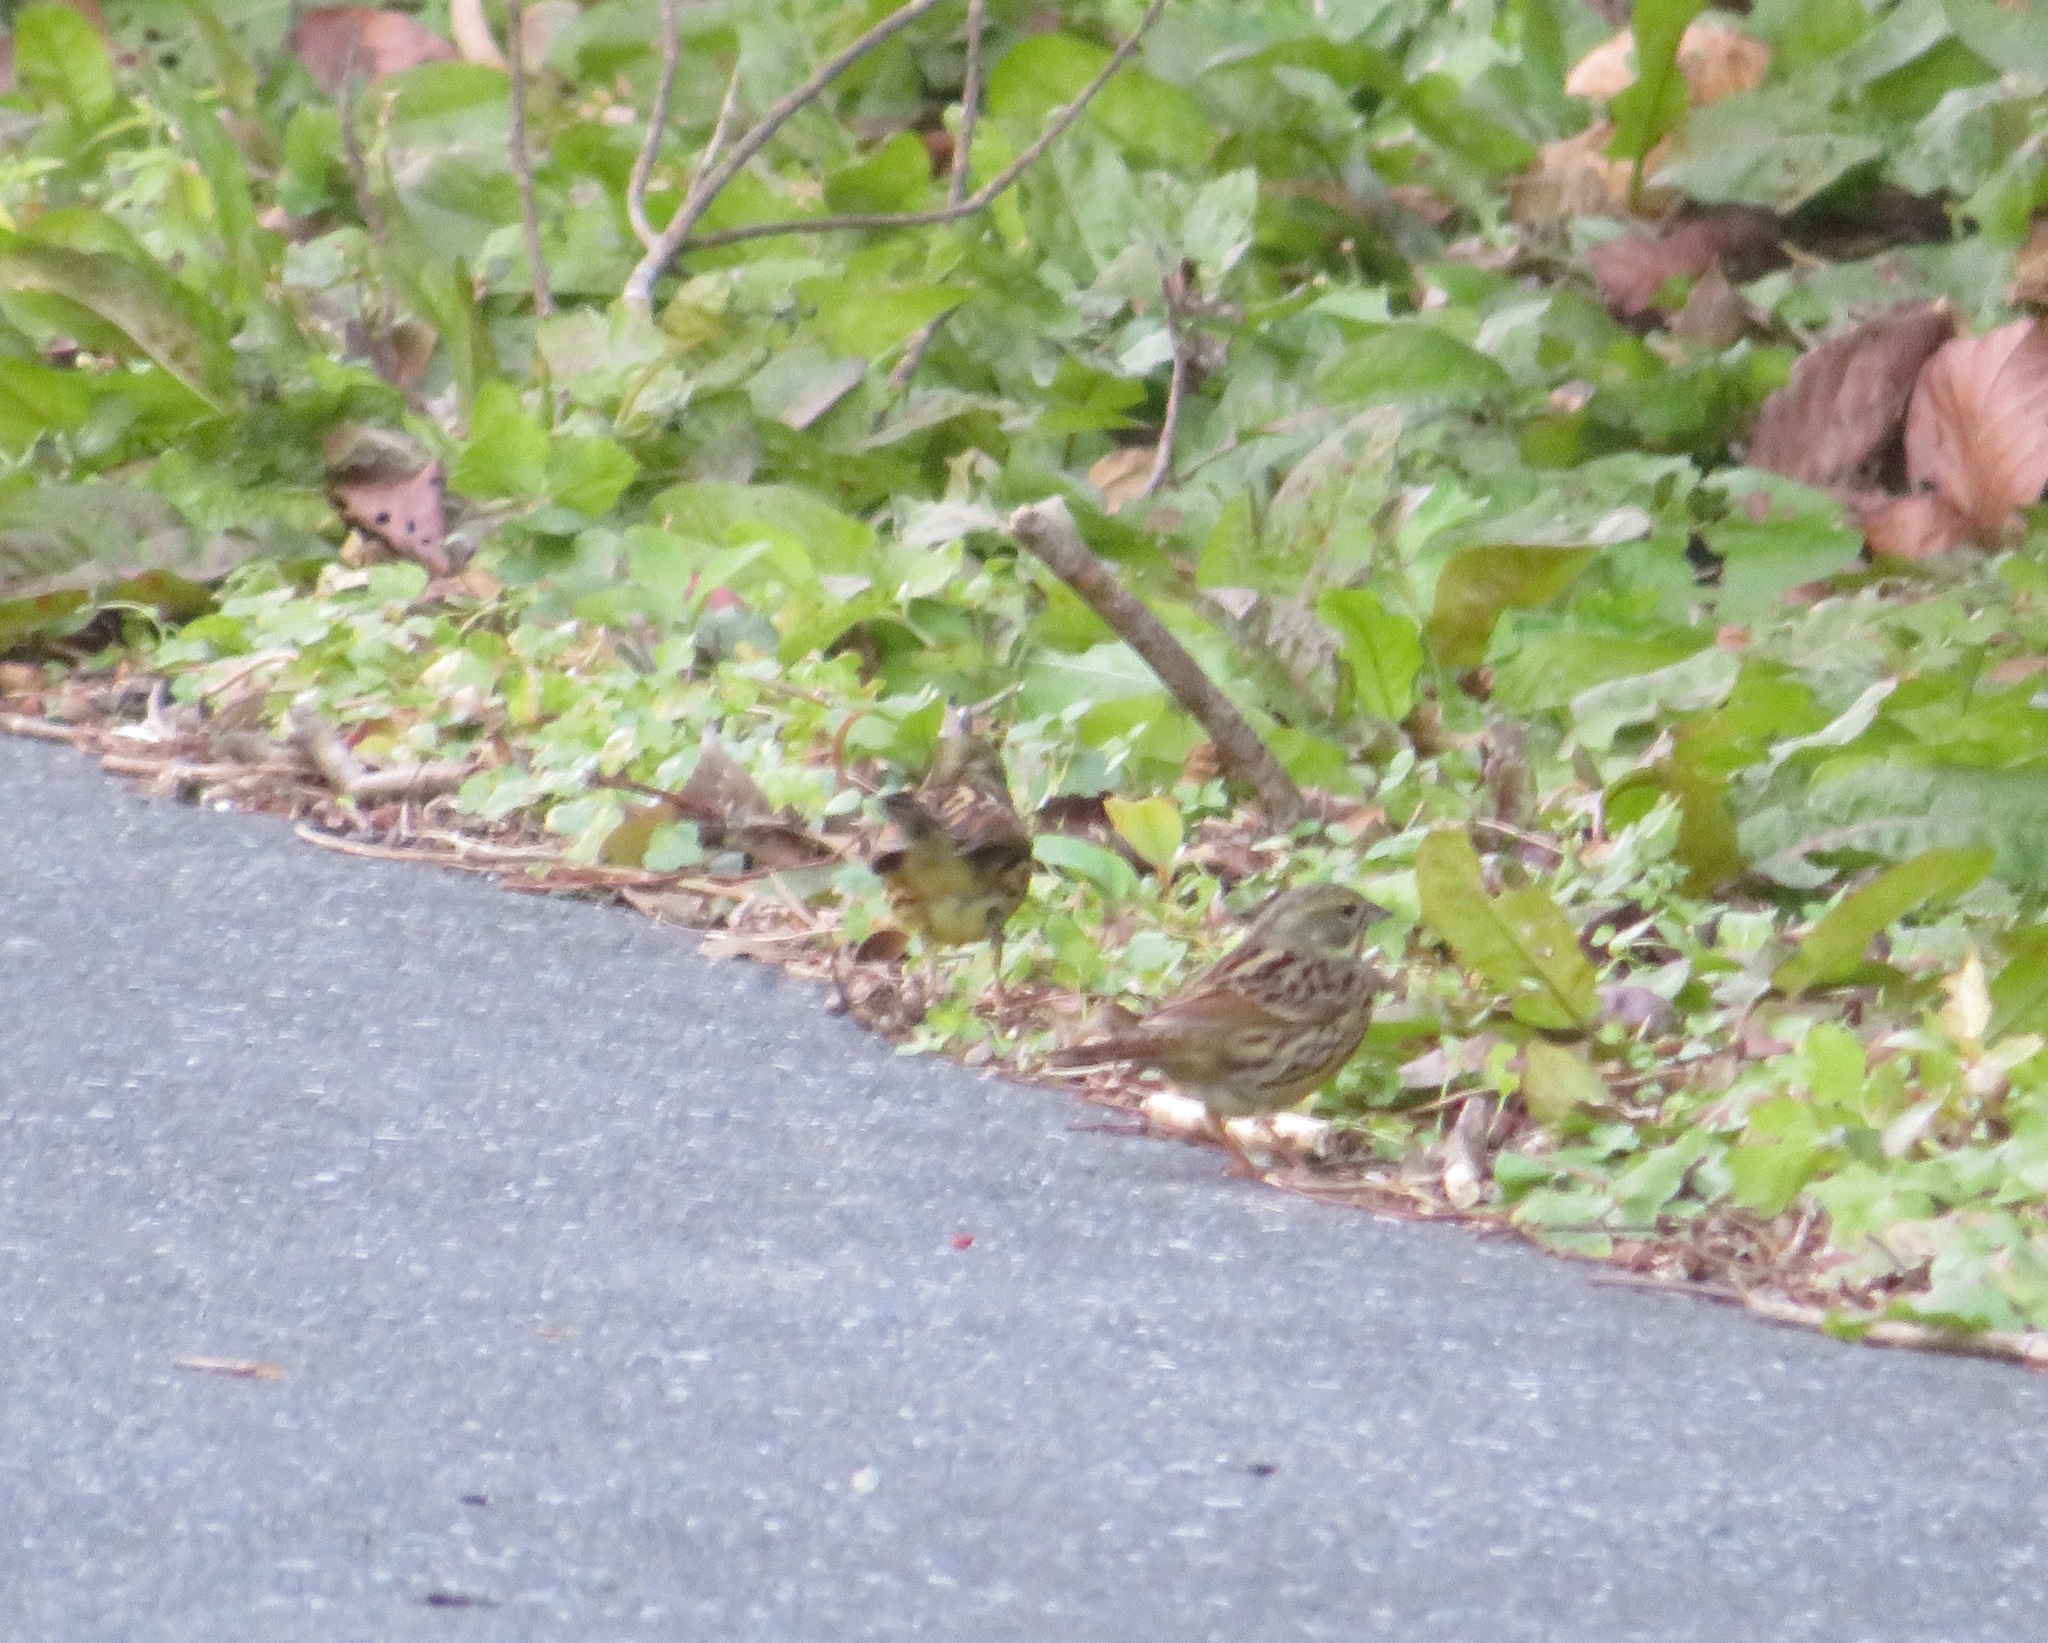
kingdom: Animalia
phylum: Chordata
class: Aves
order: Passeriformes
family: Emberizidae
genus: Emberiza
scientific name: Emberiza personata
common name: Masked bunting
